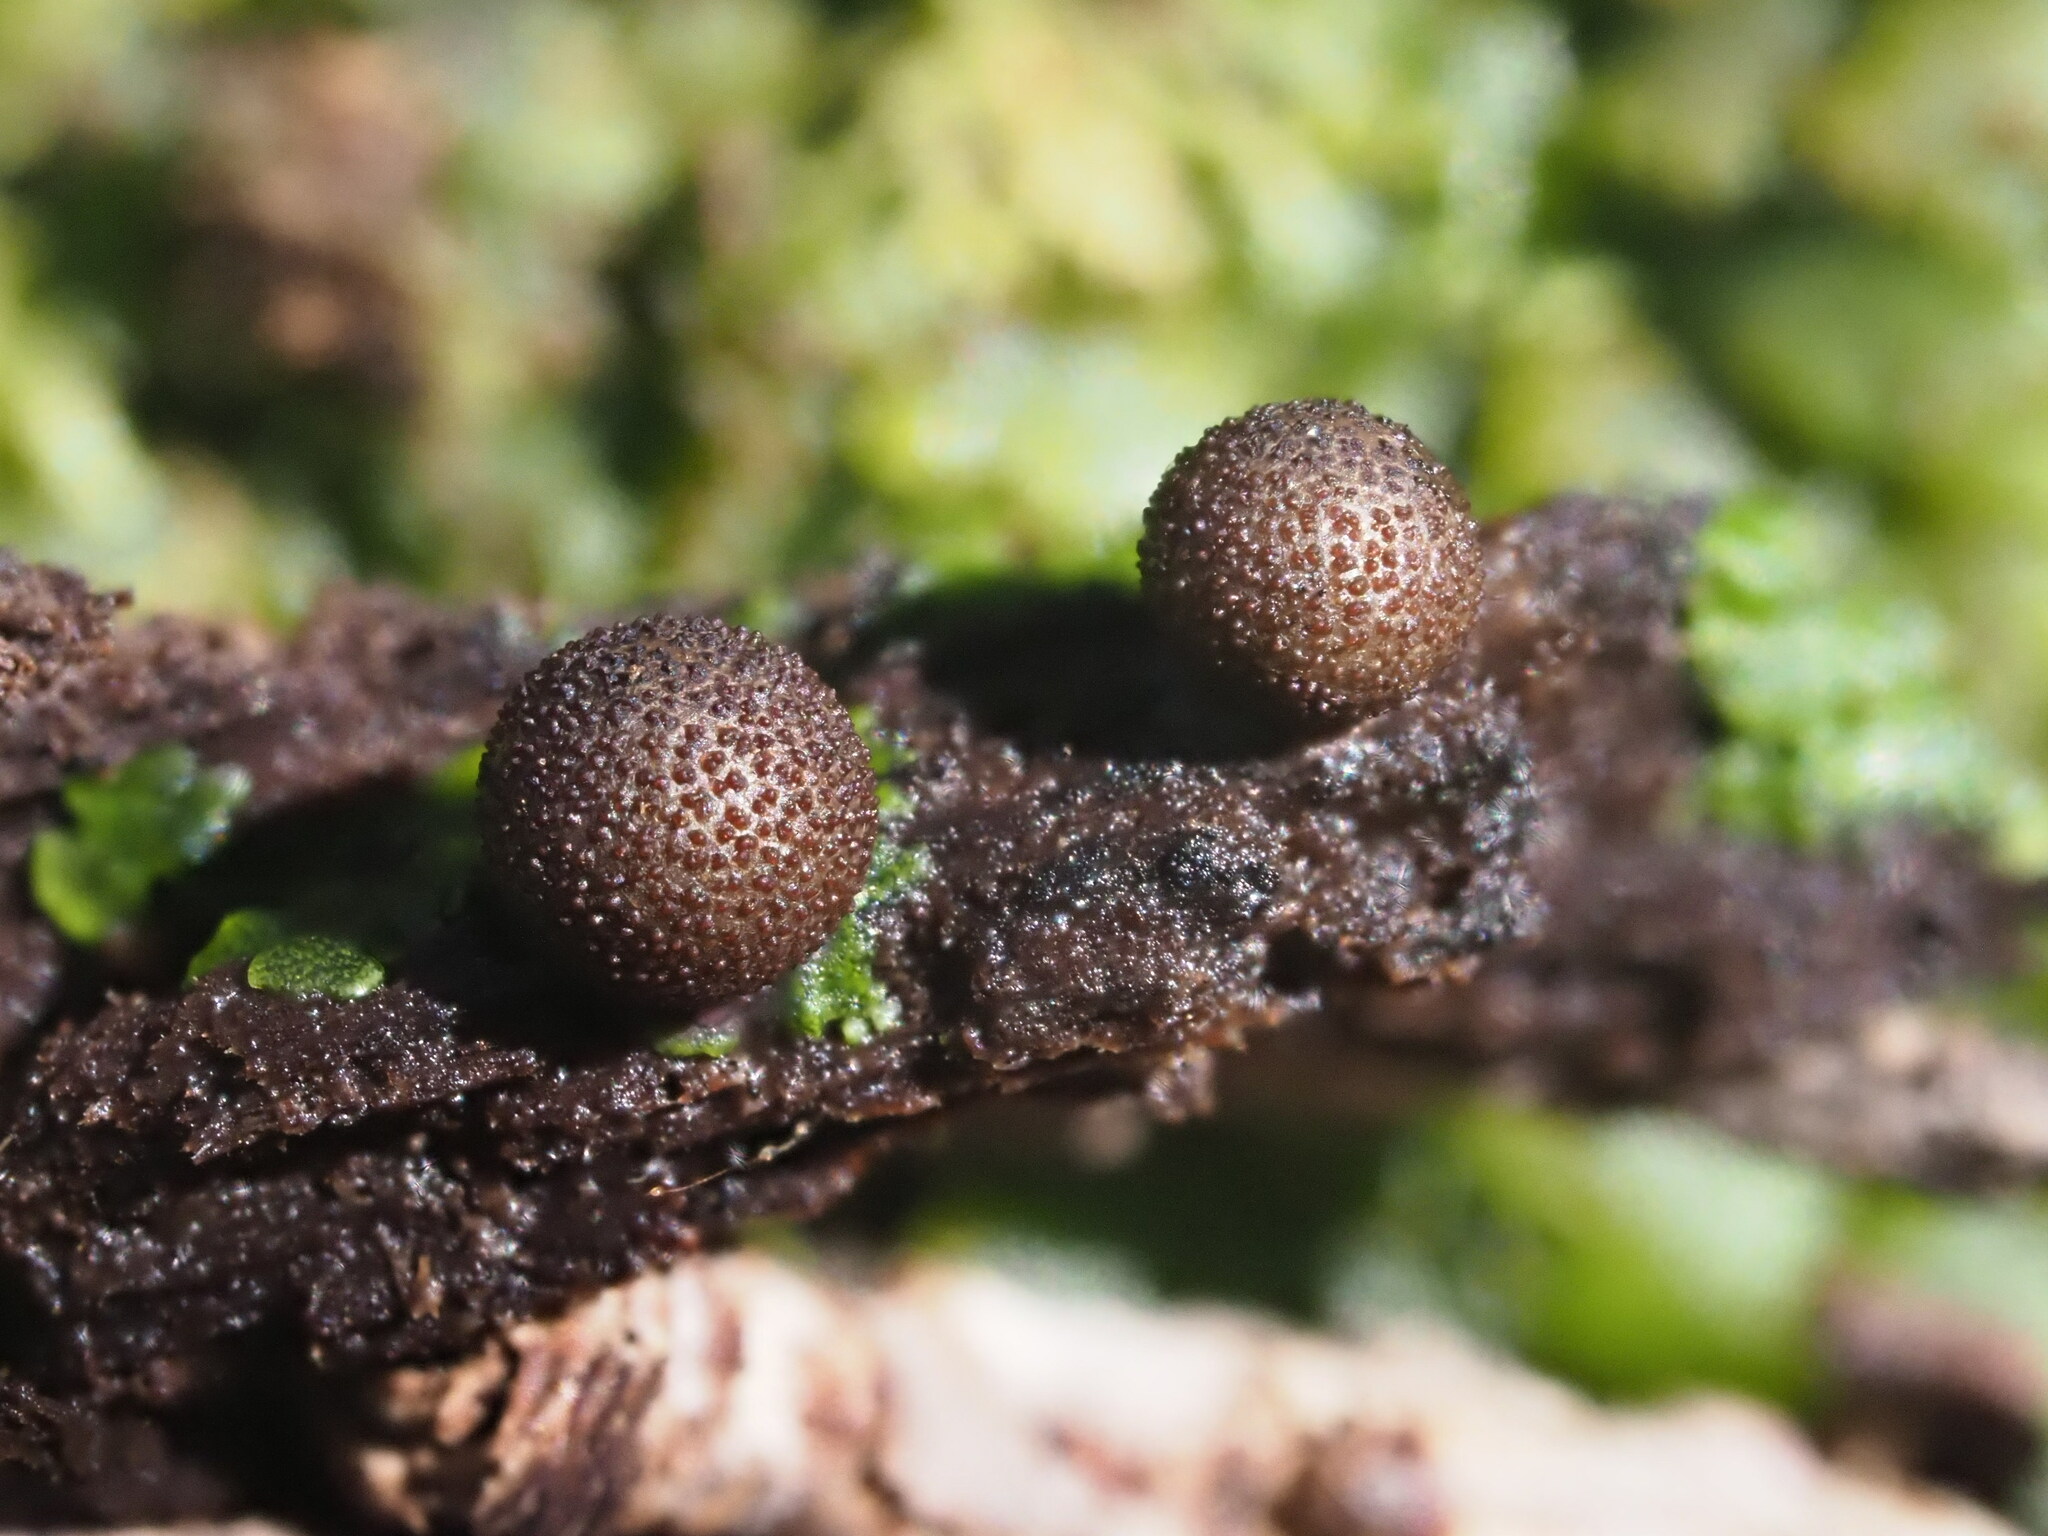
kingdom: Protozoa
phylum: Mycetozoa
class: Myxomycetes
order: Cribrariales
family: Tubiferaceae
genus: Lycogala
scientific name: Lycogala epidendrum
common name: Wolf's milk
